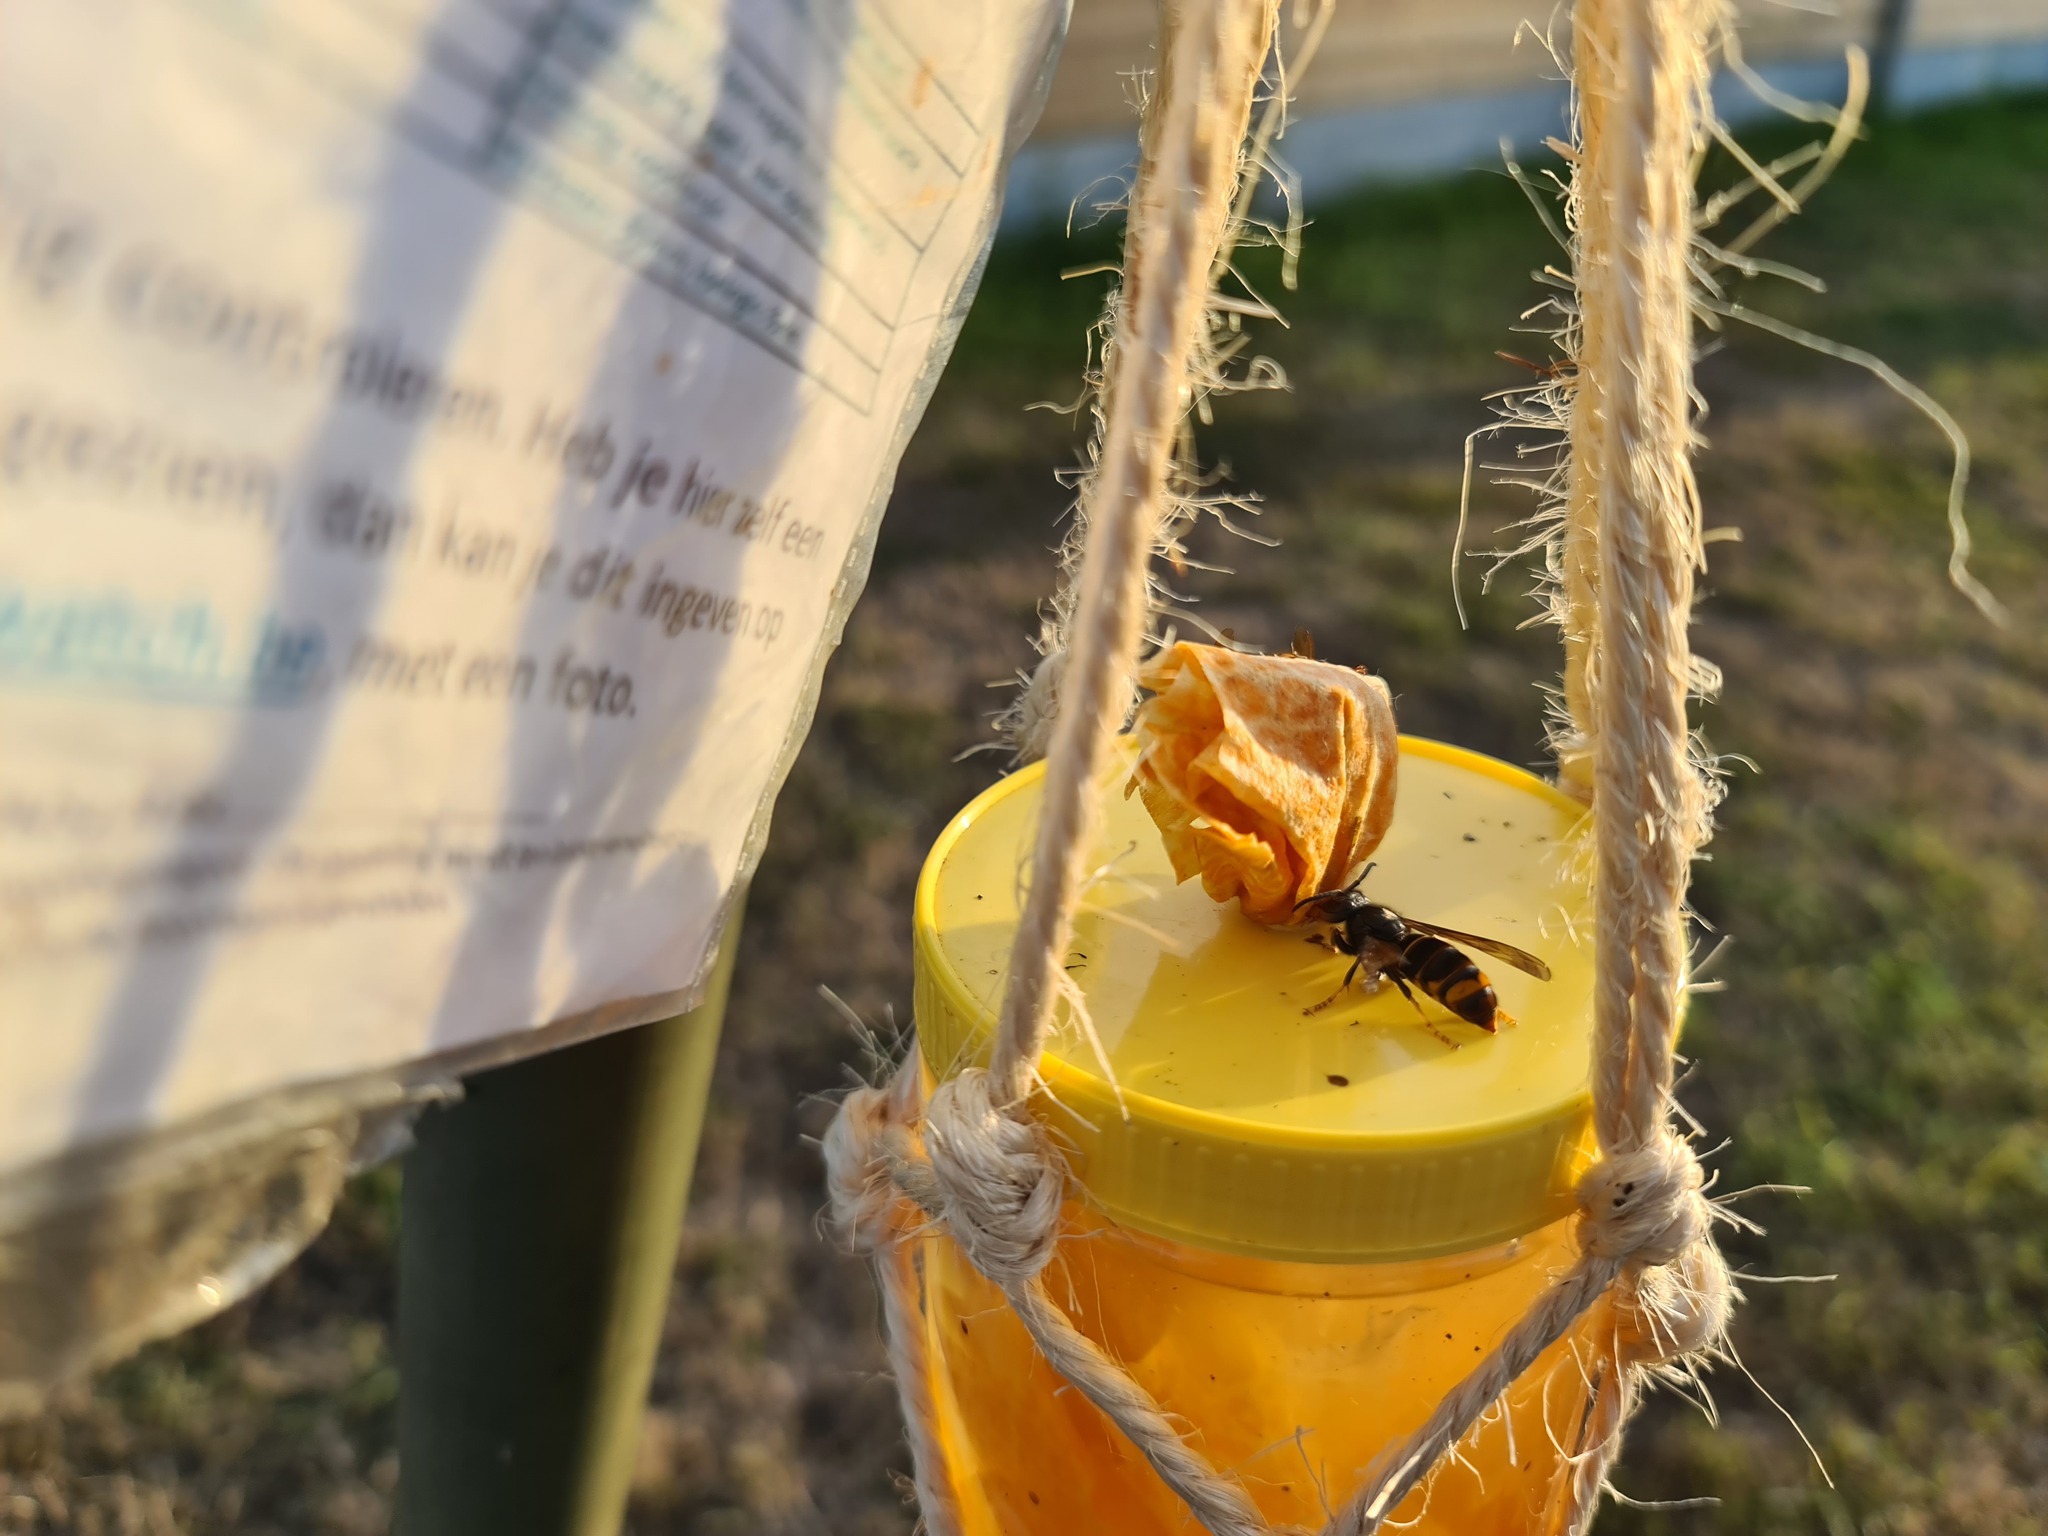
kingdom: Animalia
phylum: Arthropoda
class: Insecta
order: Hymenoptera
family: Vespidae
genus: Vespa
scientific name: Vespa velutina
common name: Asian hornet
